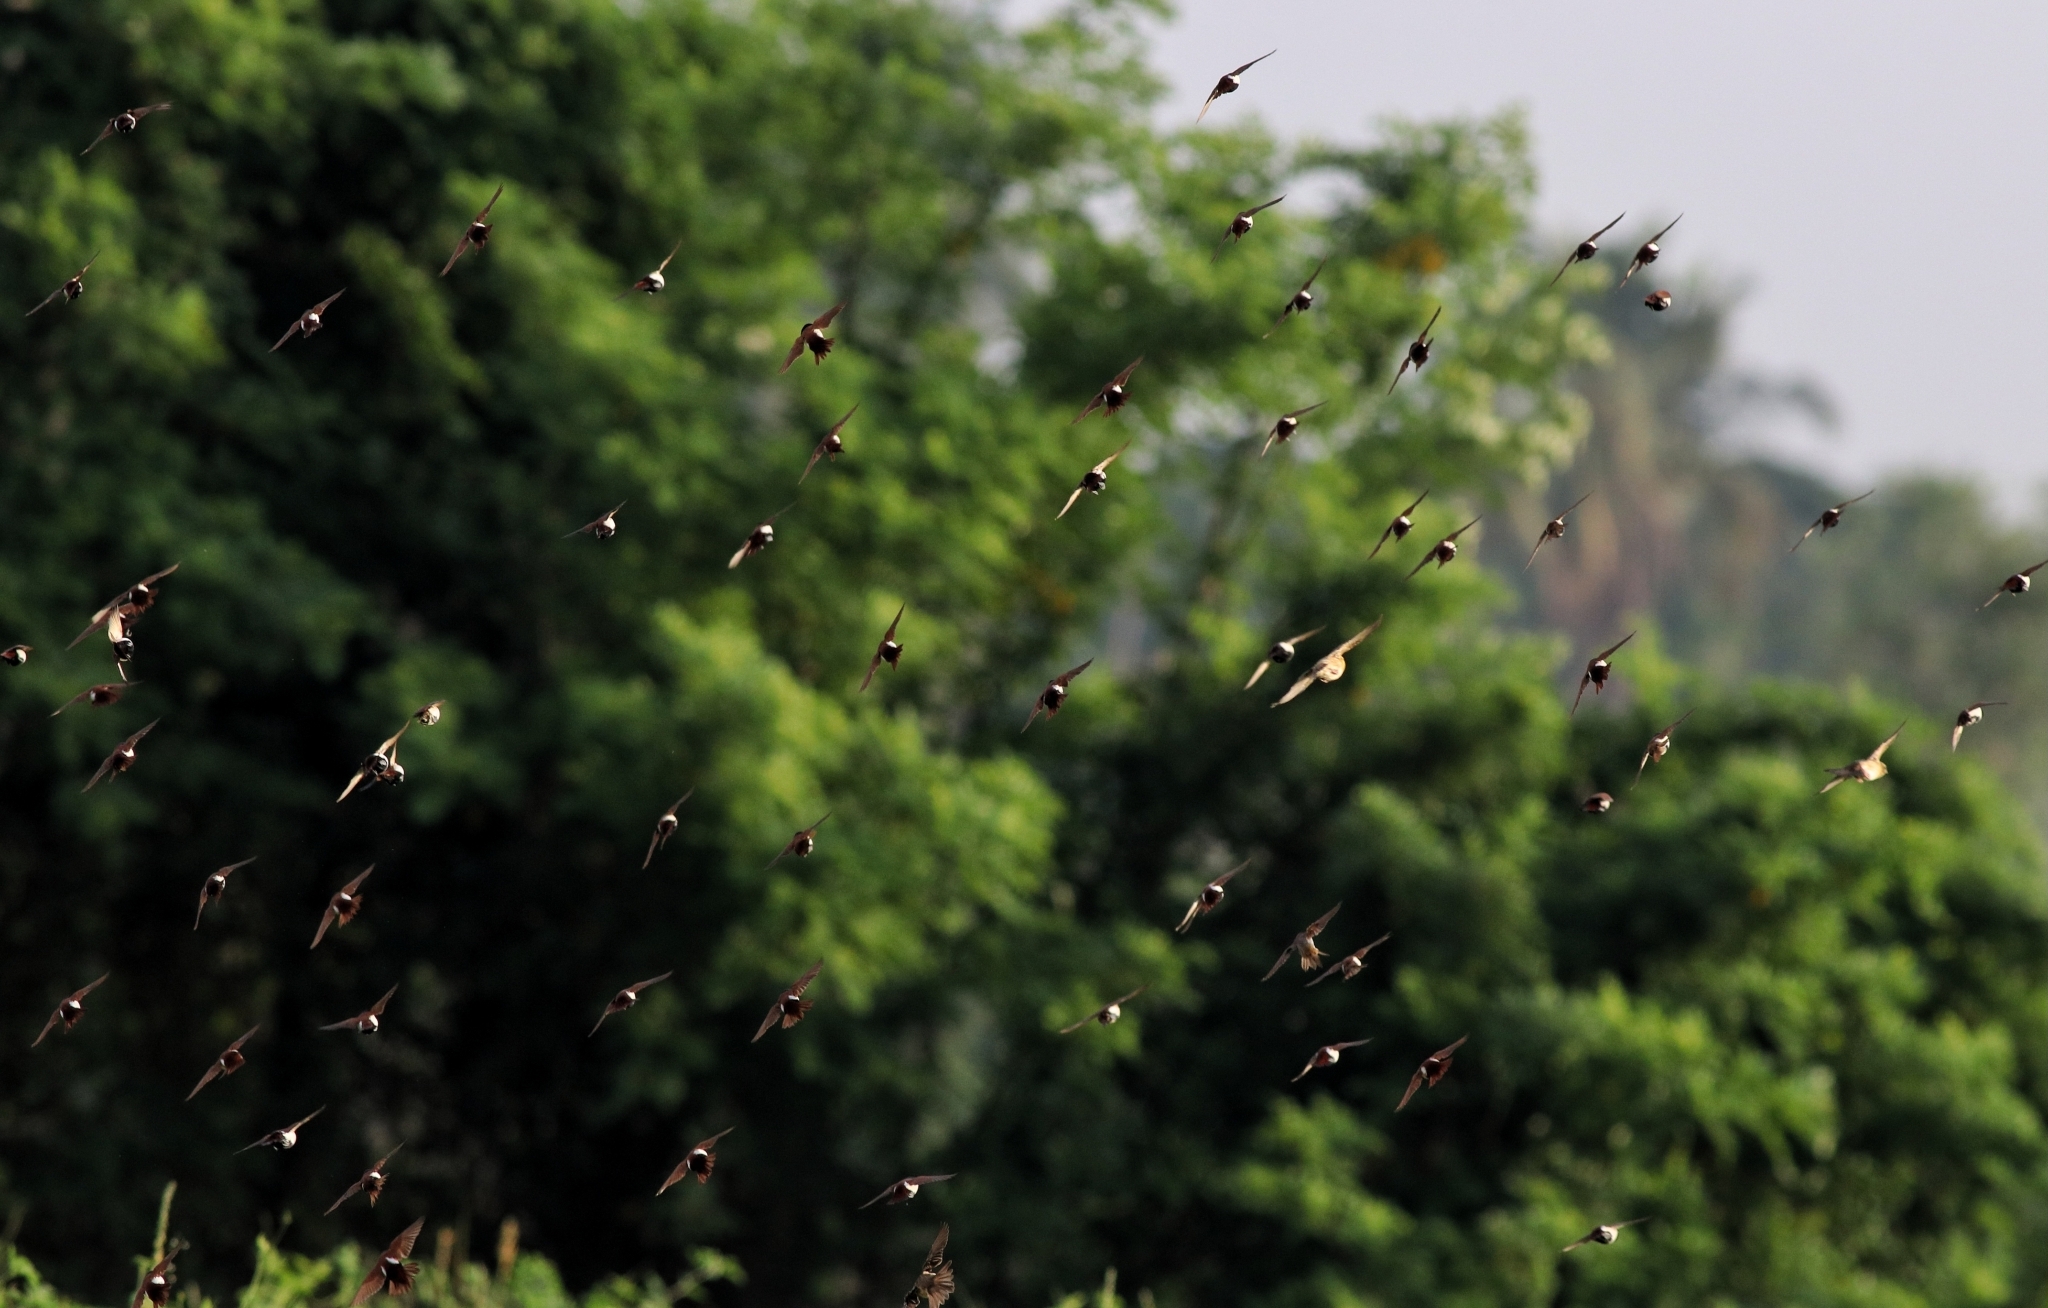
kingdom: Animalia
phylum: Chordata
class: Aves
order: Passeriformes
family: Estrildidae
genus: Lonchura
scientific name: Lonchura malacca
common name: Tricolored munia
